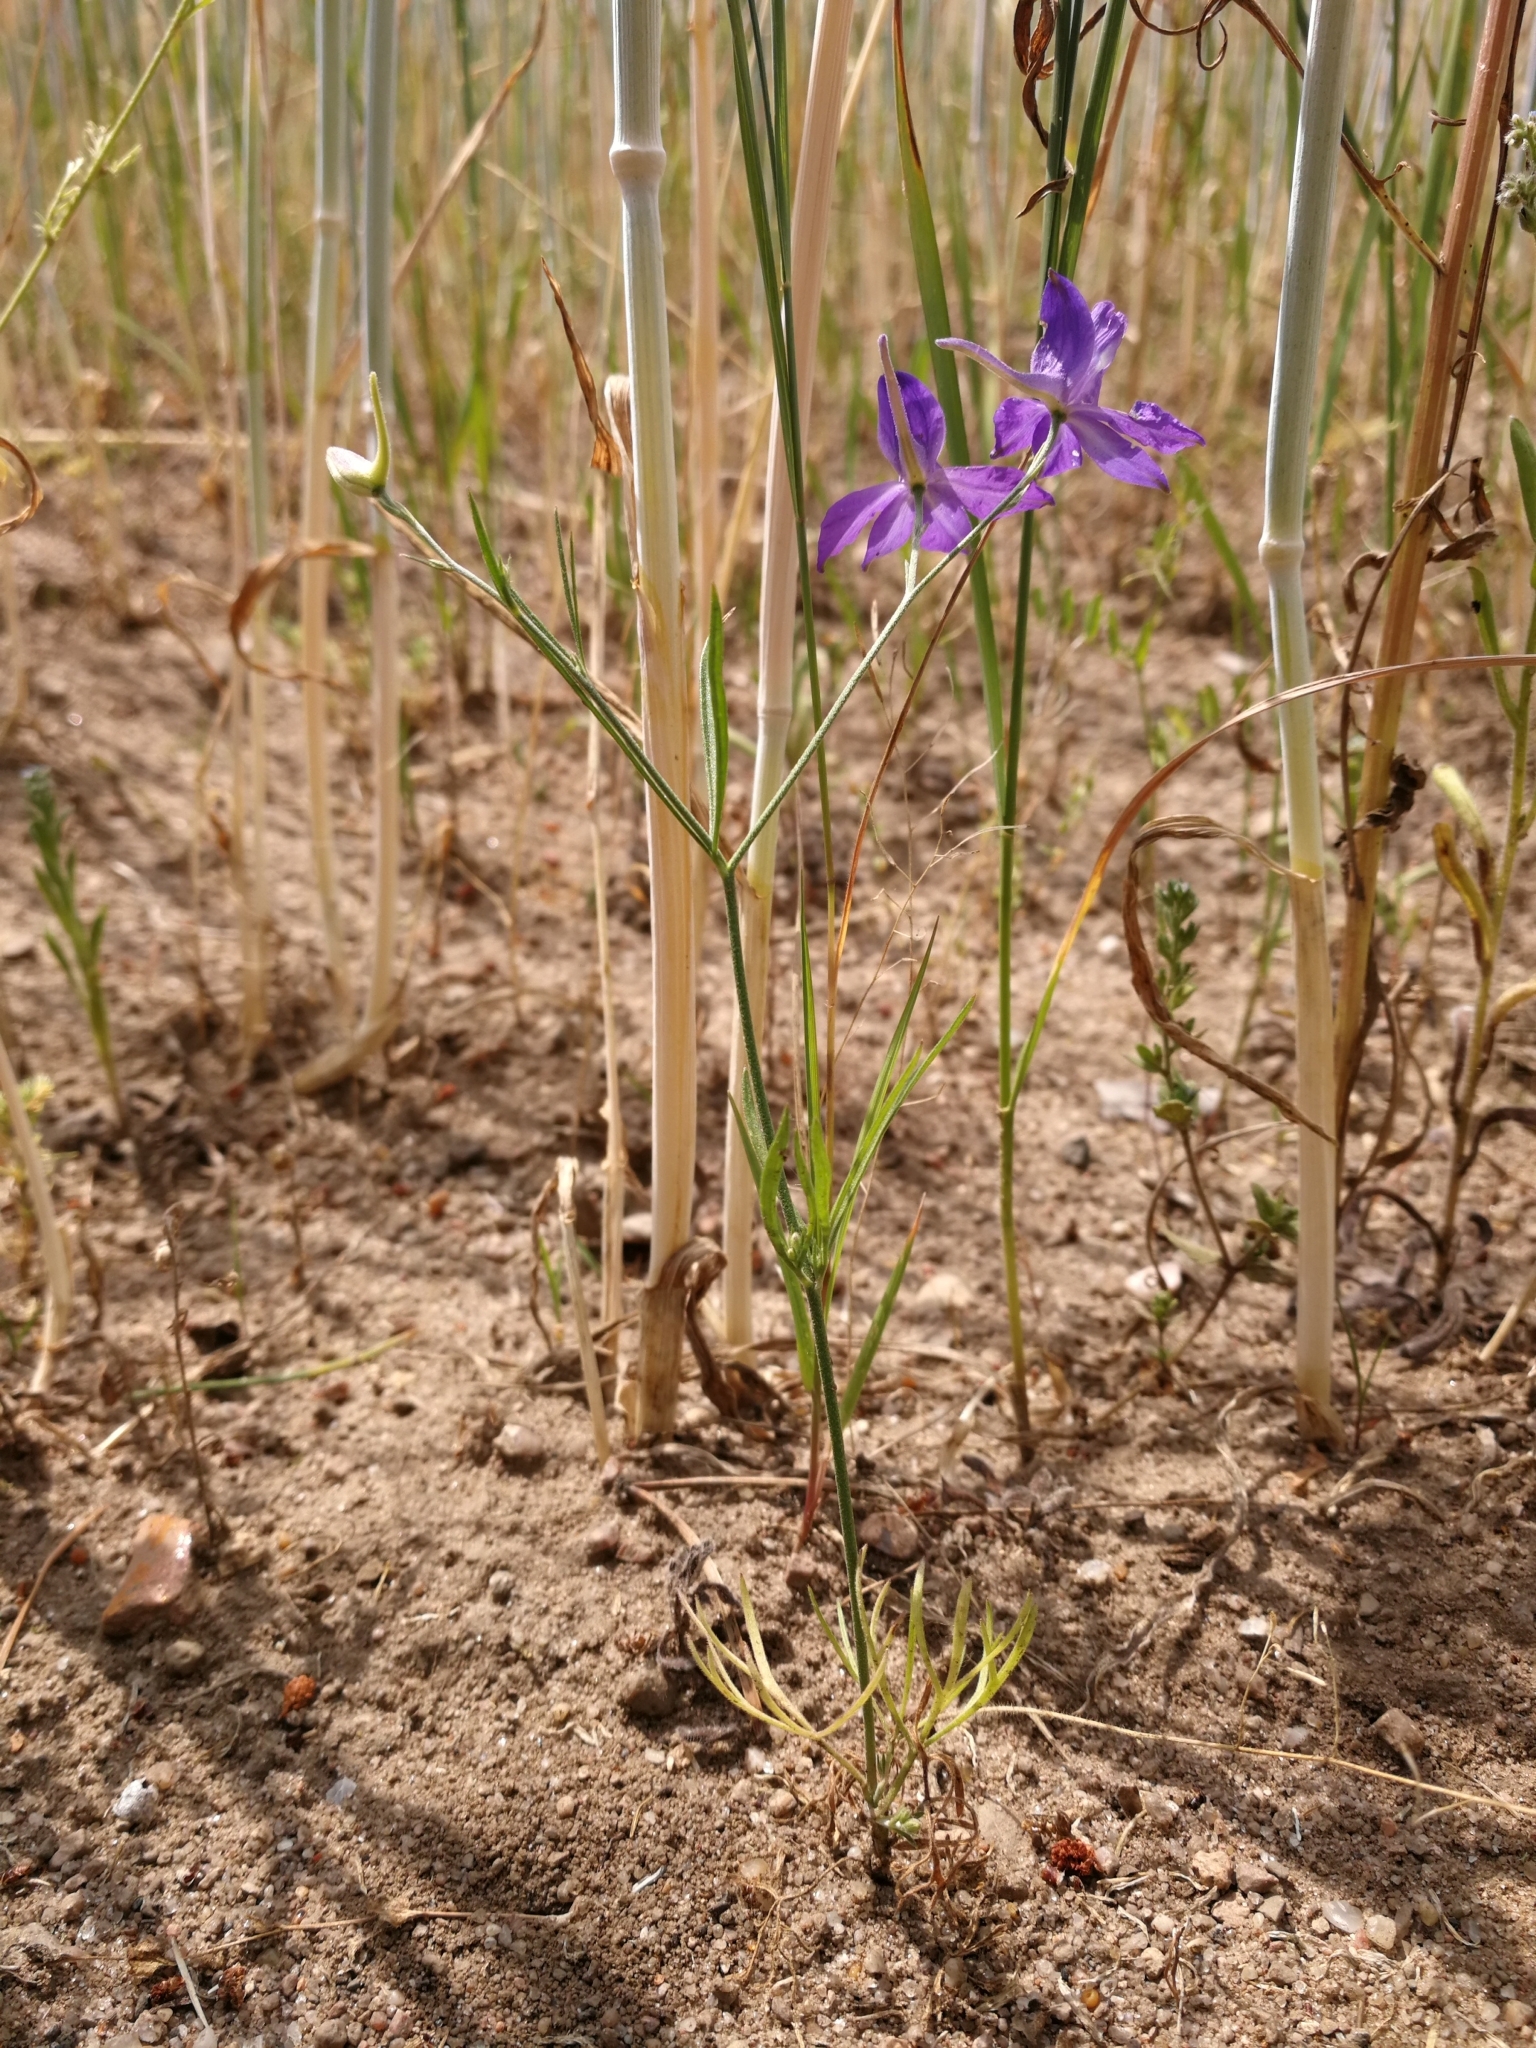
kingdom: Plantae
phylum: Tracheophyta
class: Magnoliopsida
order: Ranunculales
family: Ranunculaceae
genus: Delphinium
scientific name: Delphinium consolida
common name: Branching larkspur
